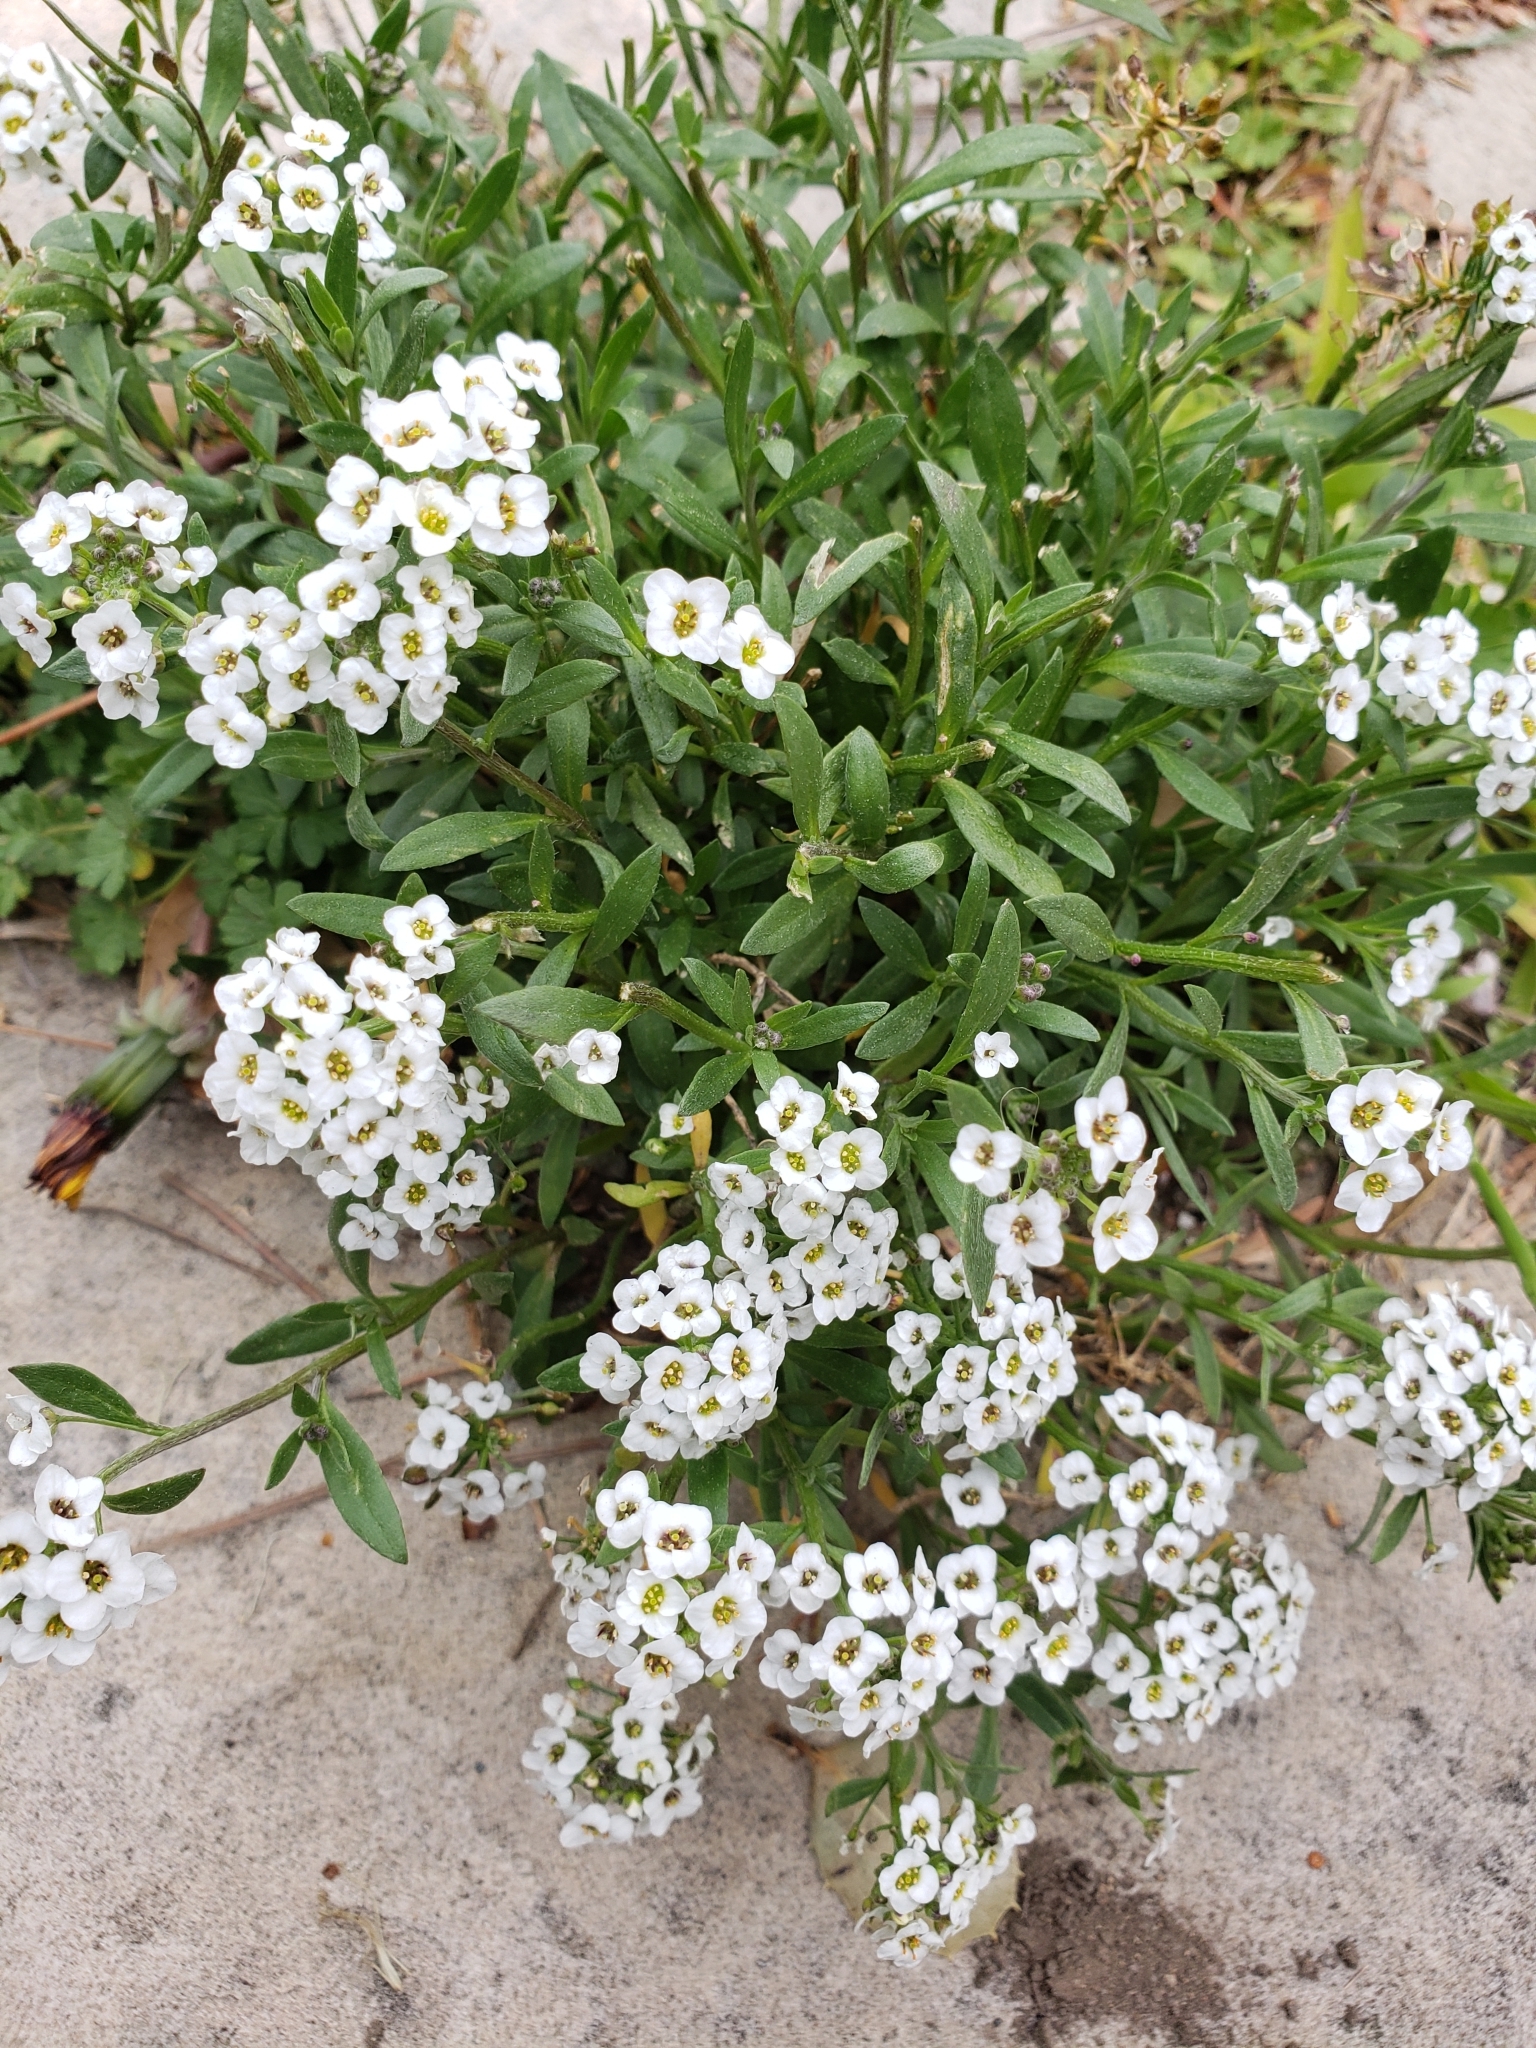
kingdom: Plantae
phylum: Tracheophyta
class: Magnoliopsida
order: Brassicales
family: Brassicaceae
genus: Lobularia
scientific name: Lobularia maritima
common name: Sweet alison
